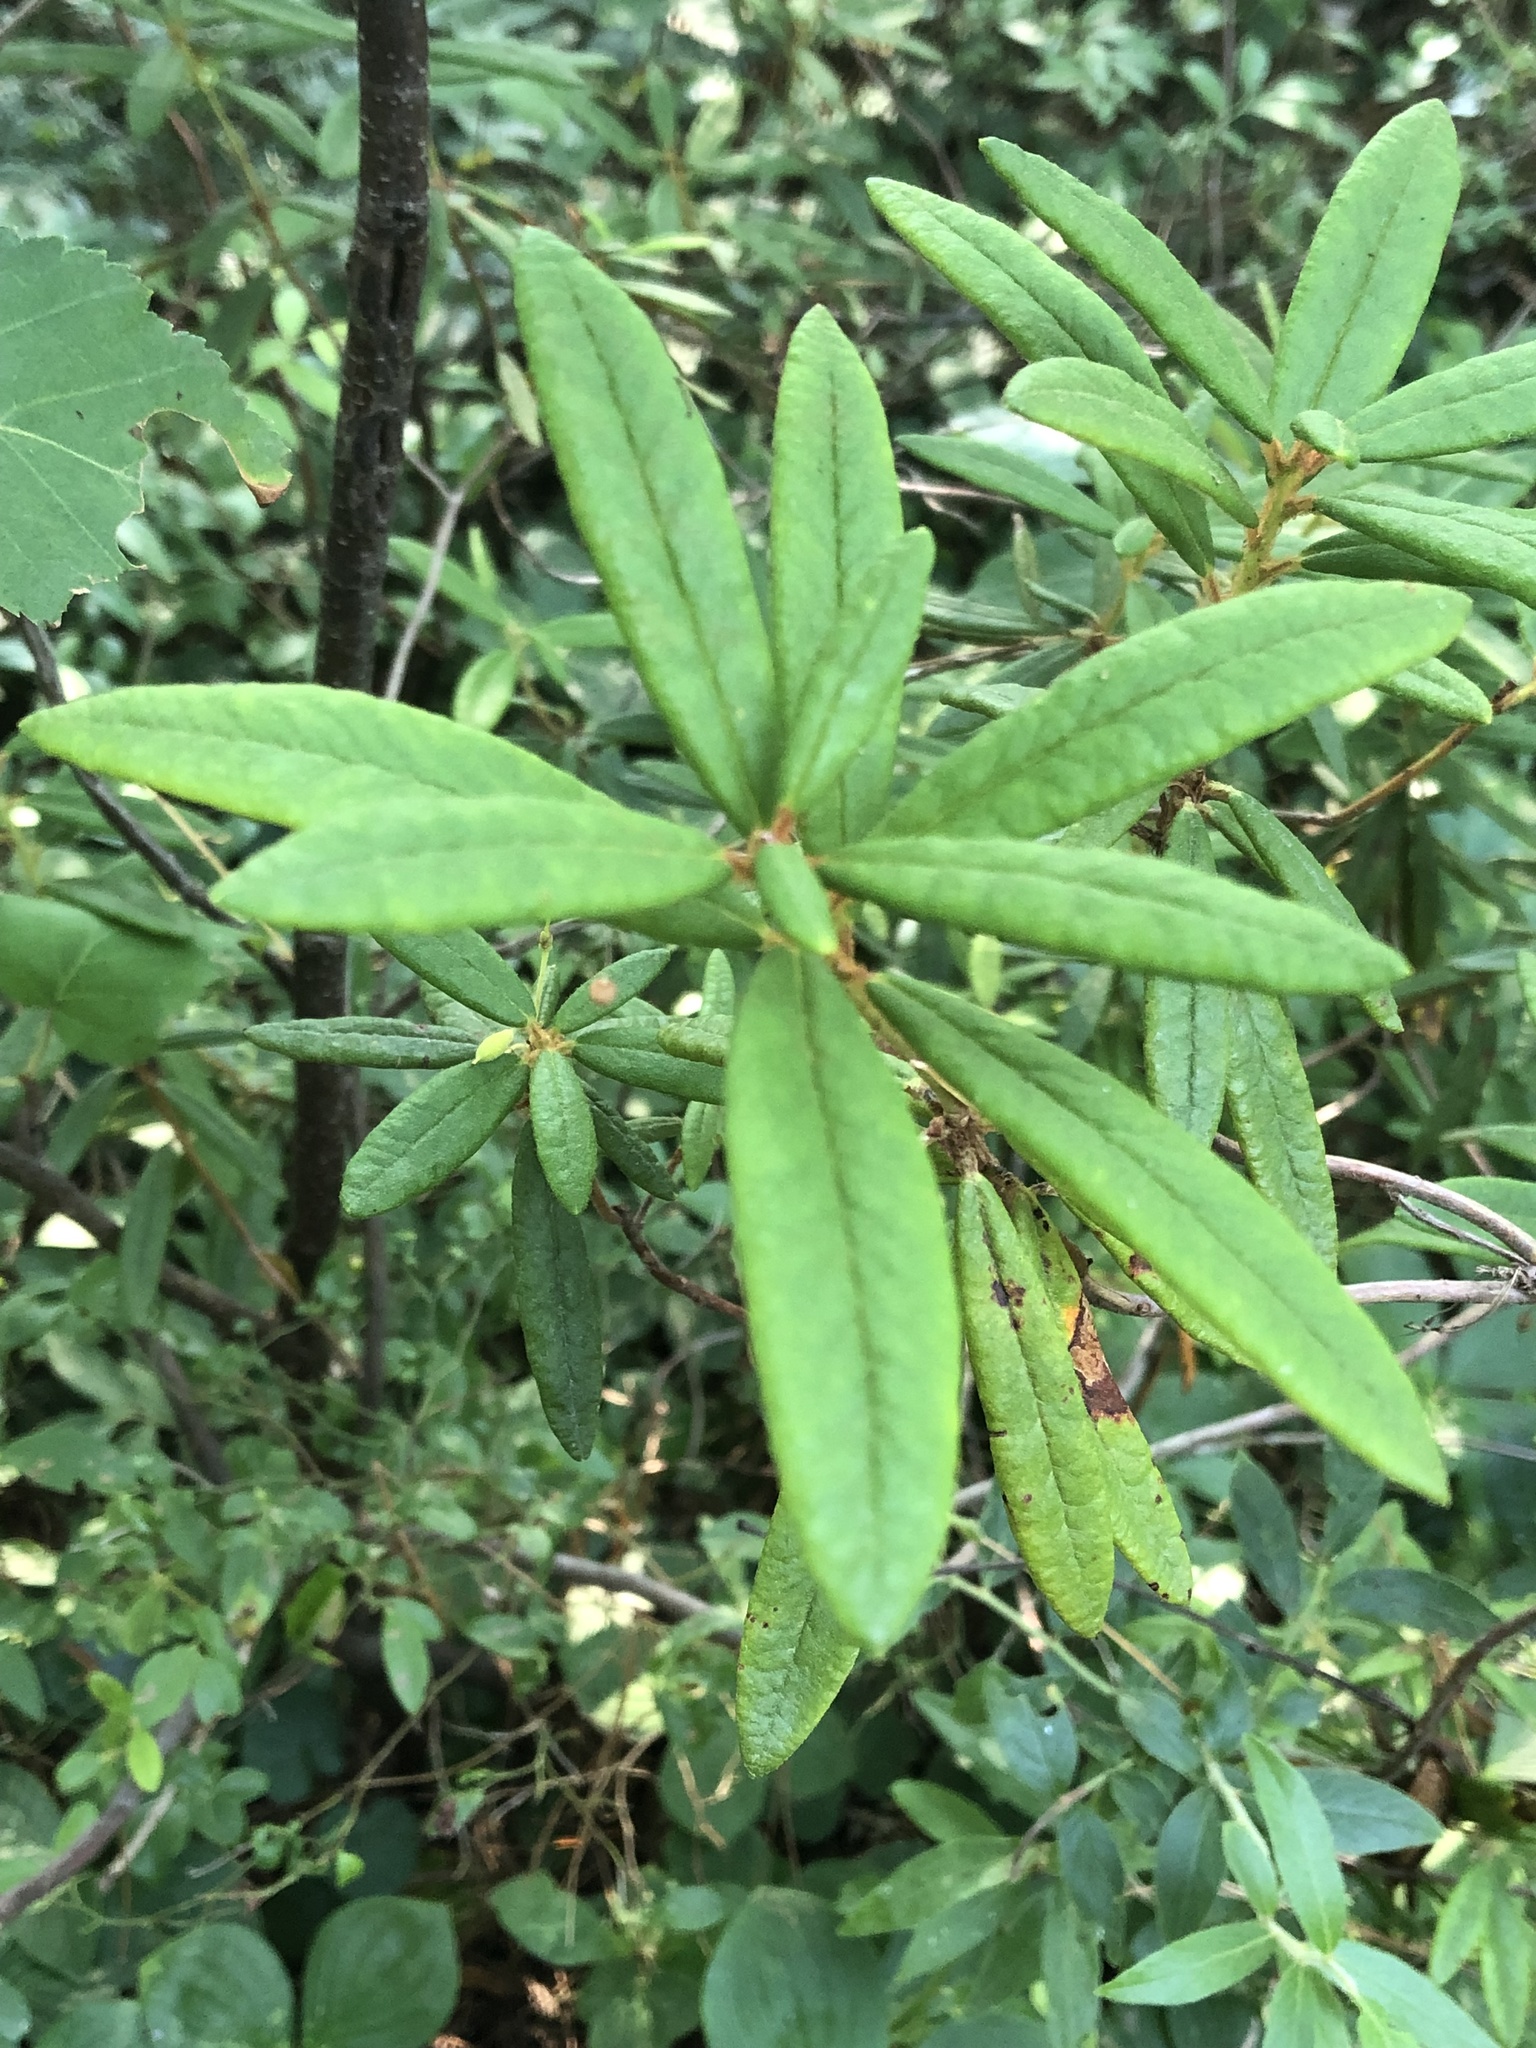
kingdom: Plantae
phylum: Tracheophyta
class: Magnoliopsida
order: Ericales
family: Ericaceae
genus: Rhododendron
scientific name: Rhododendron groenlandicum
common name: Bog labrador tea
